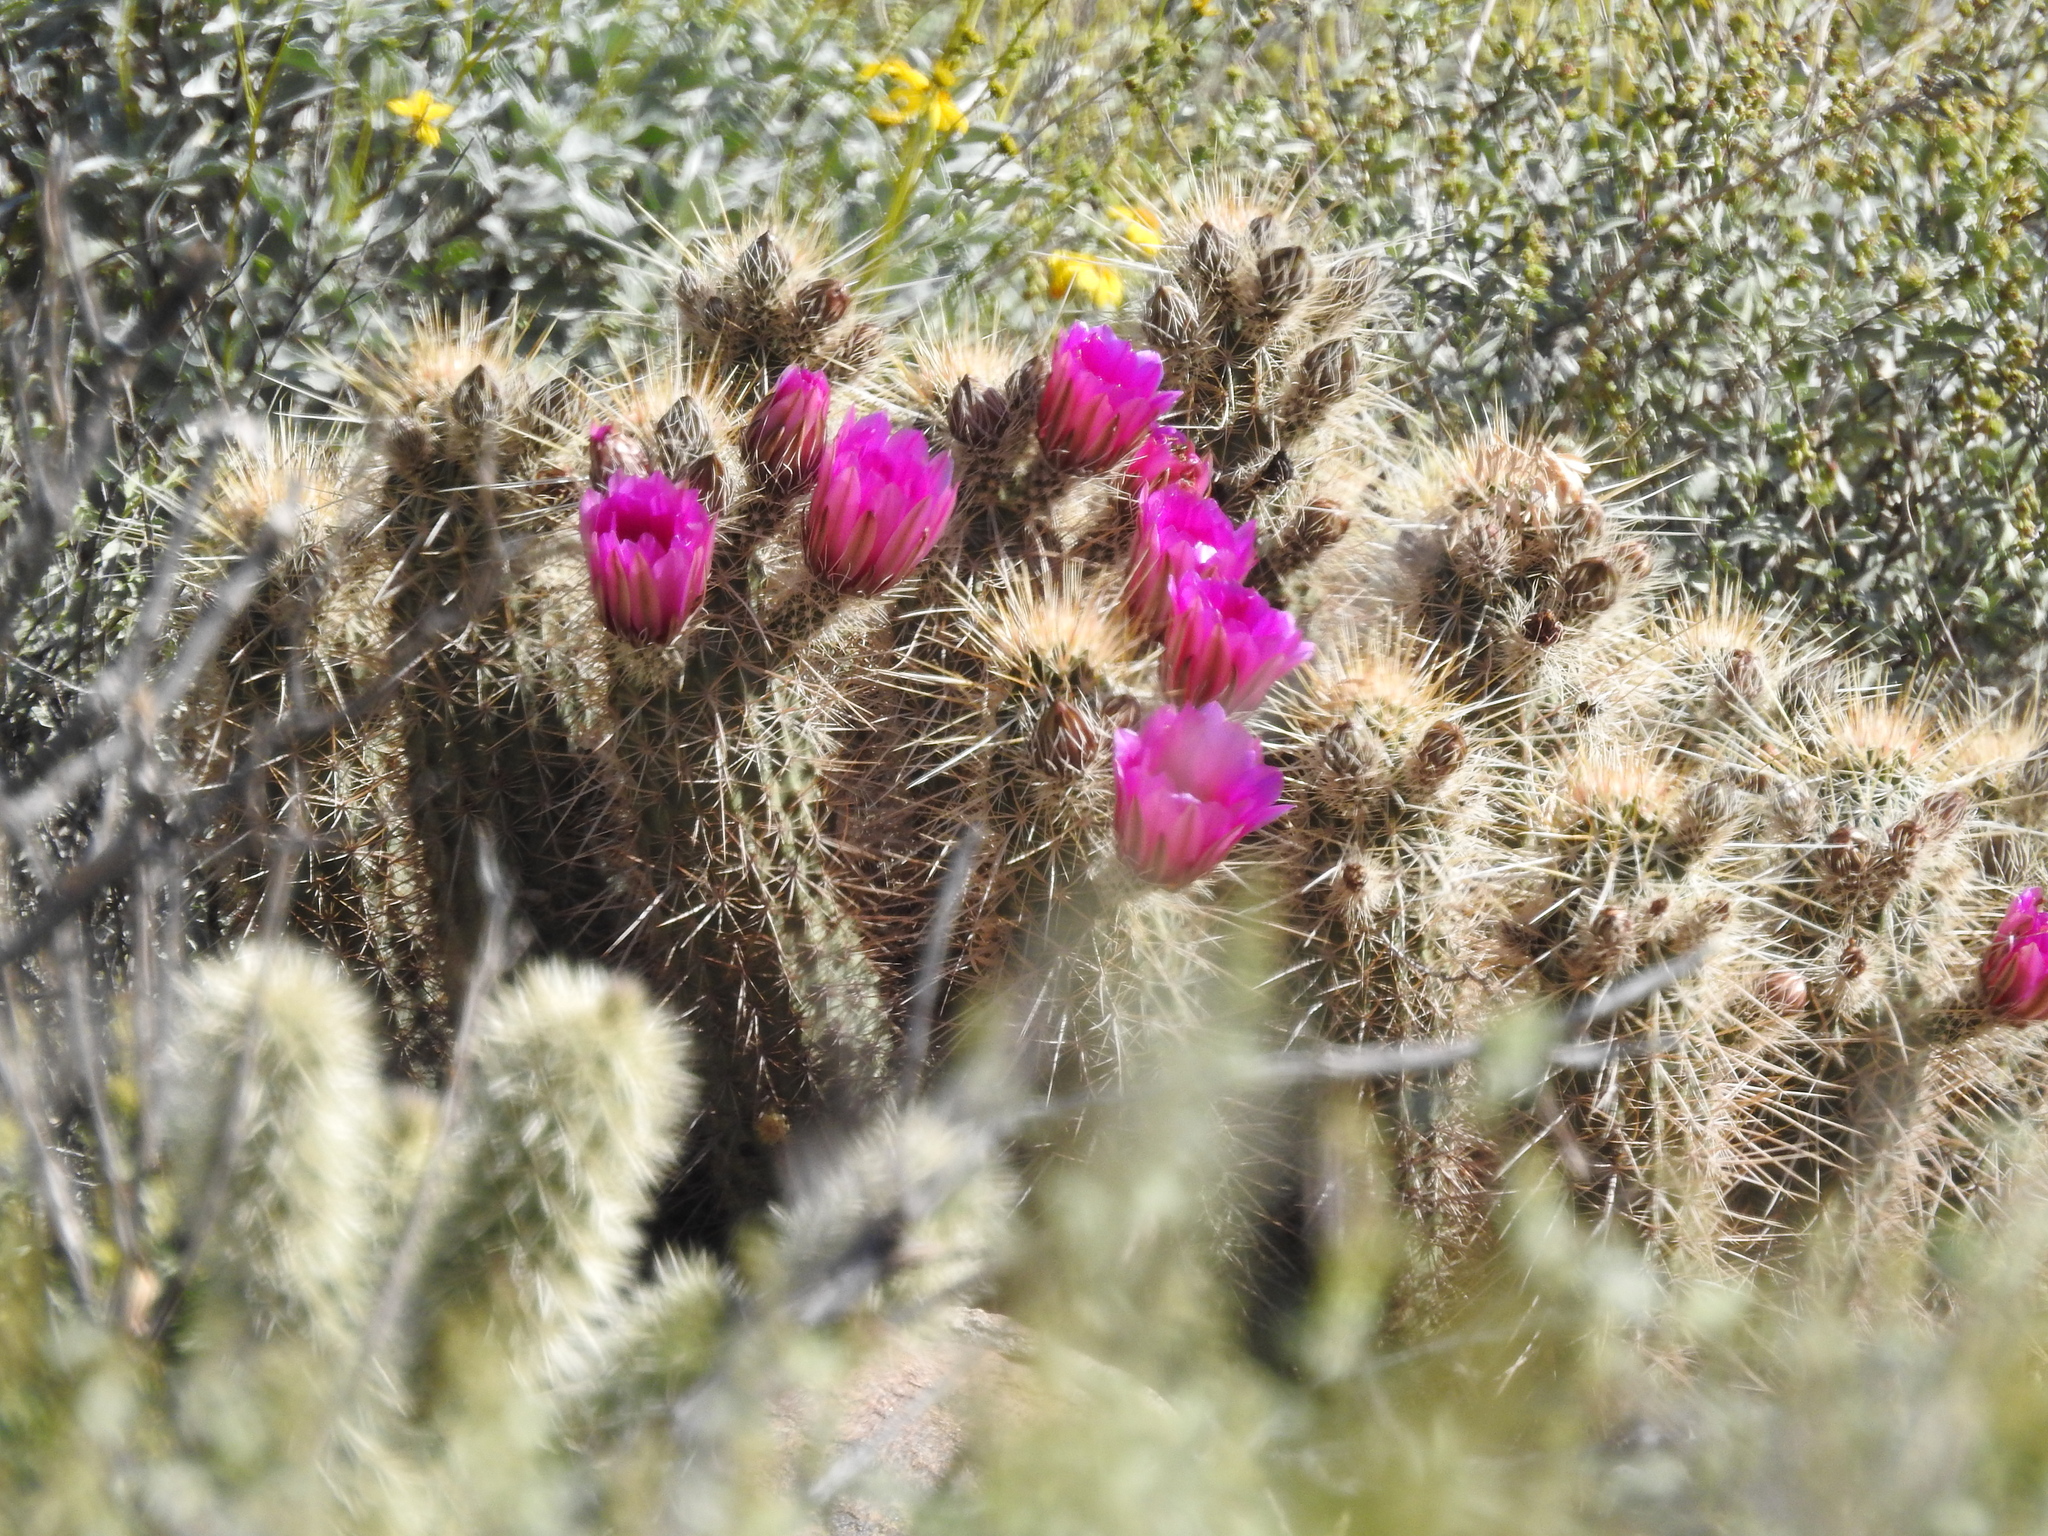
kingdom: Plantae
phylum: Tracheophyta
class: Magnoliopsida
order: Caryophyllales
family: Cactaceae
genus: Echinocereus
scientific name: Echinocereus engelmannii
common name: Engelmann's hedgehog cactus
